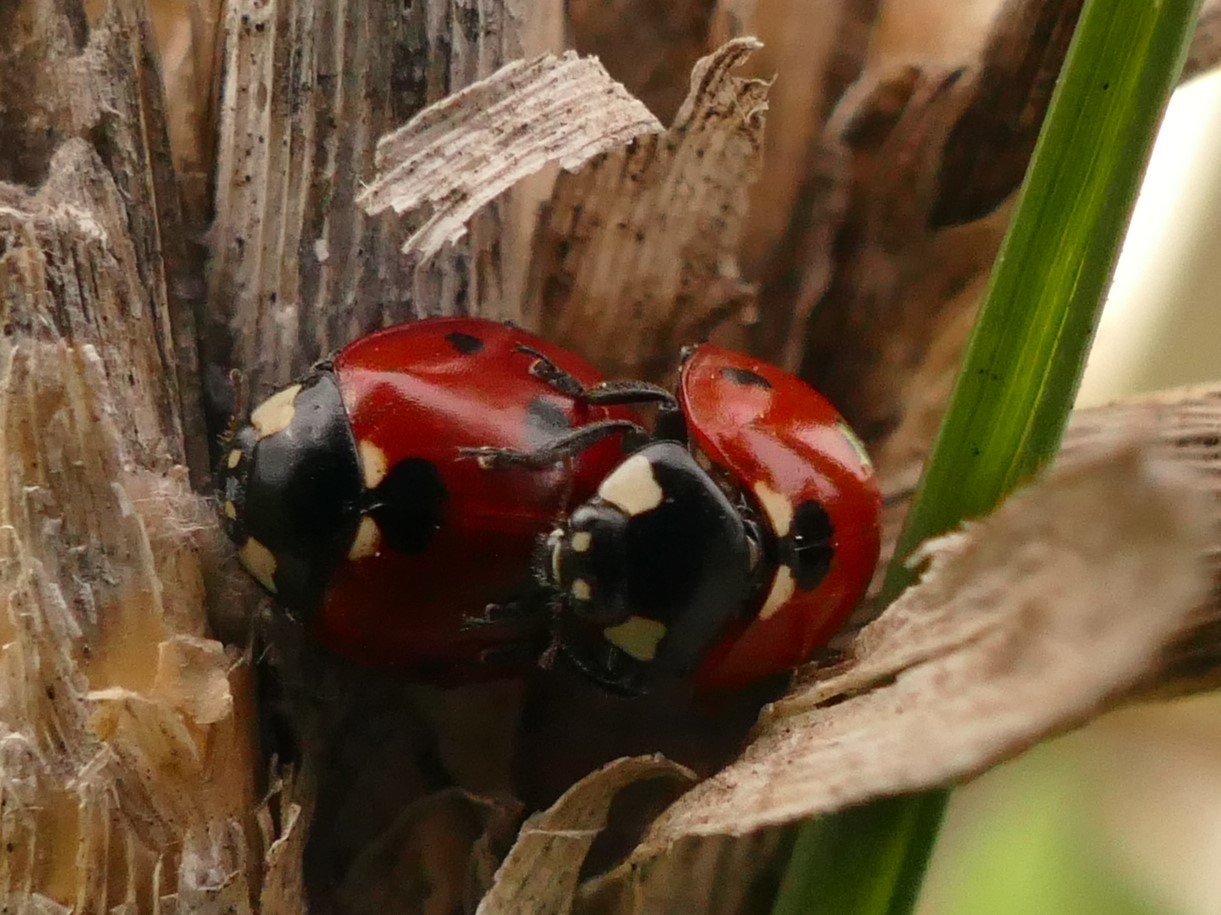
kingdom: Animalia
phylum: Arthropoda
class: Insecta
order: Coleoptera
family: Coccinellidae
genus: Coccinella
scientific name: Coccinella septempunctata
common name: Sevenspotted lady beetle
